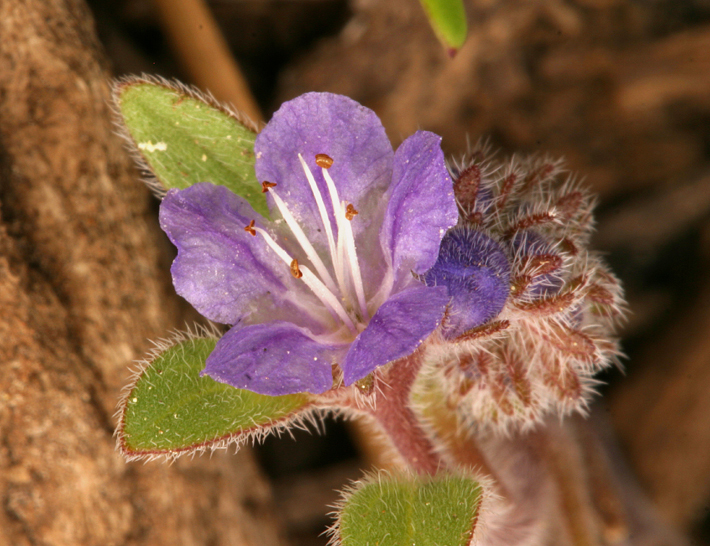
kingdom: Plantae
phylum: Tracheophyta
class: Magnoliopsida
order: Boraginales
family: Hydrophyllaceae
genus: Phacelia
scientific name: Phacelia humilis
